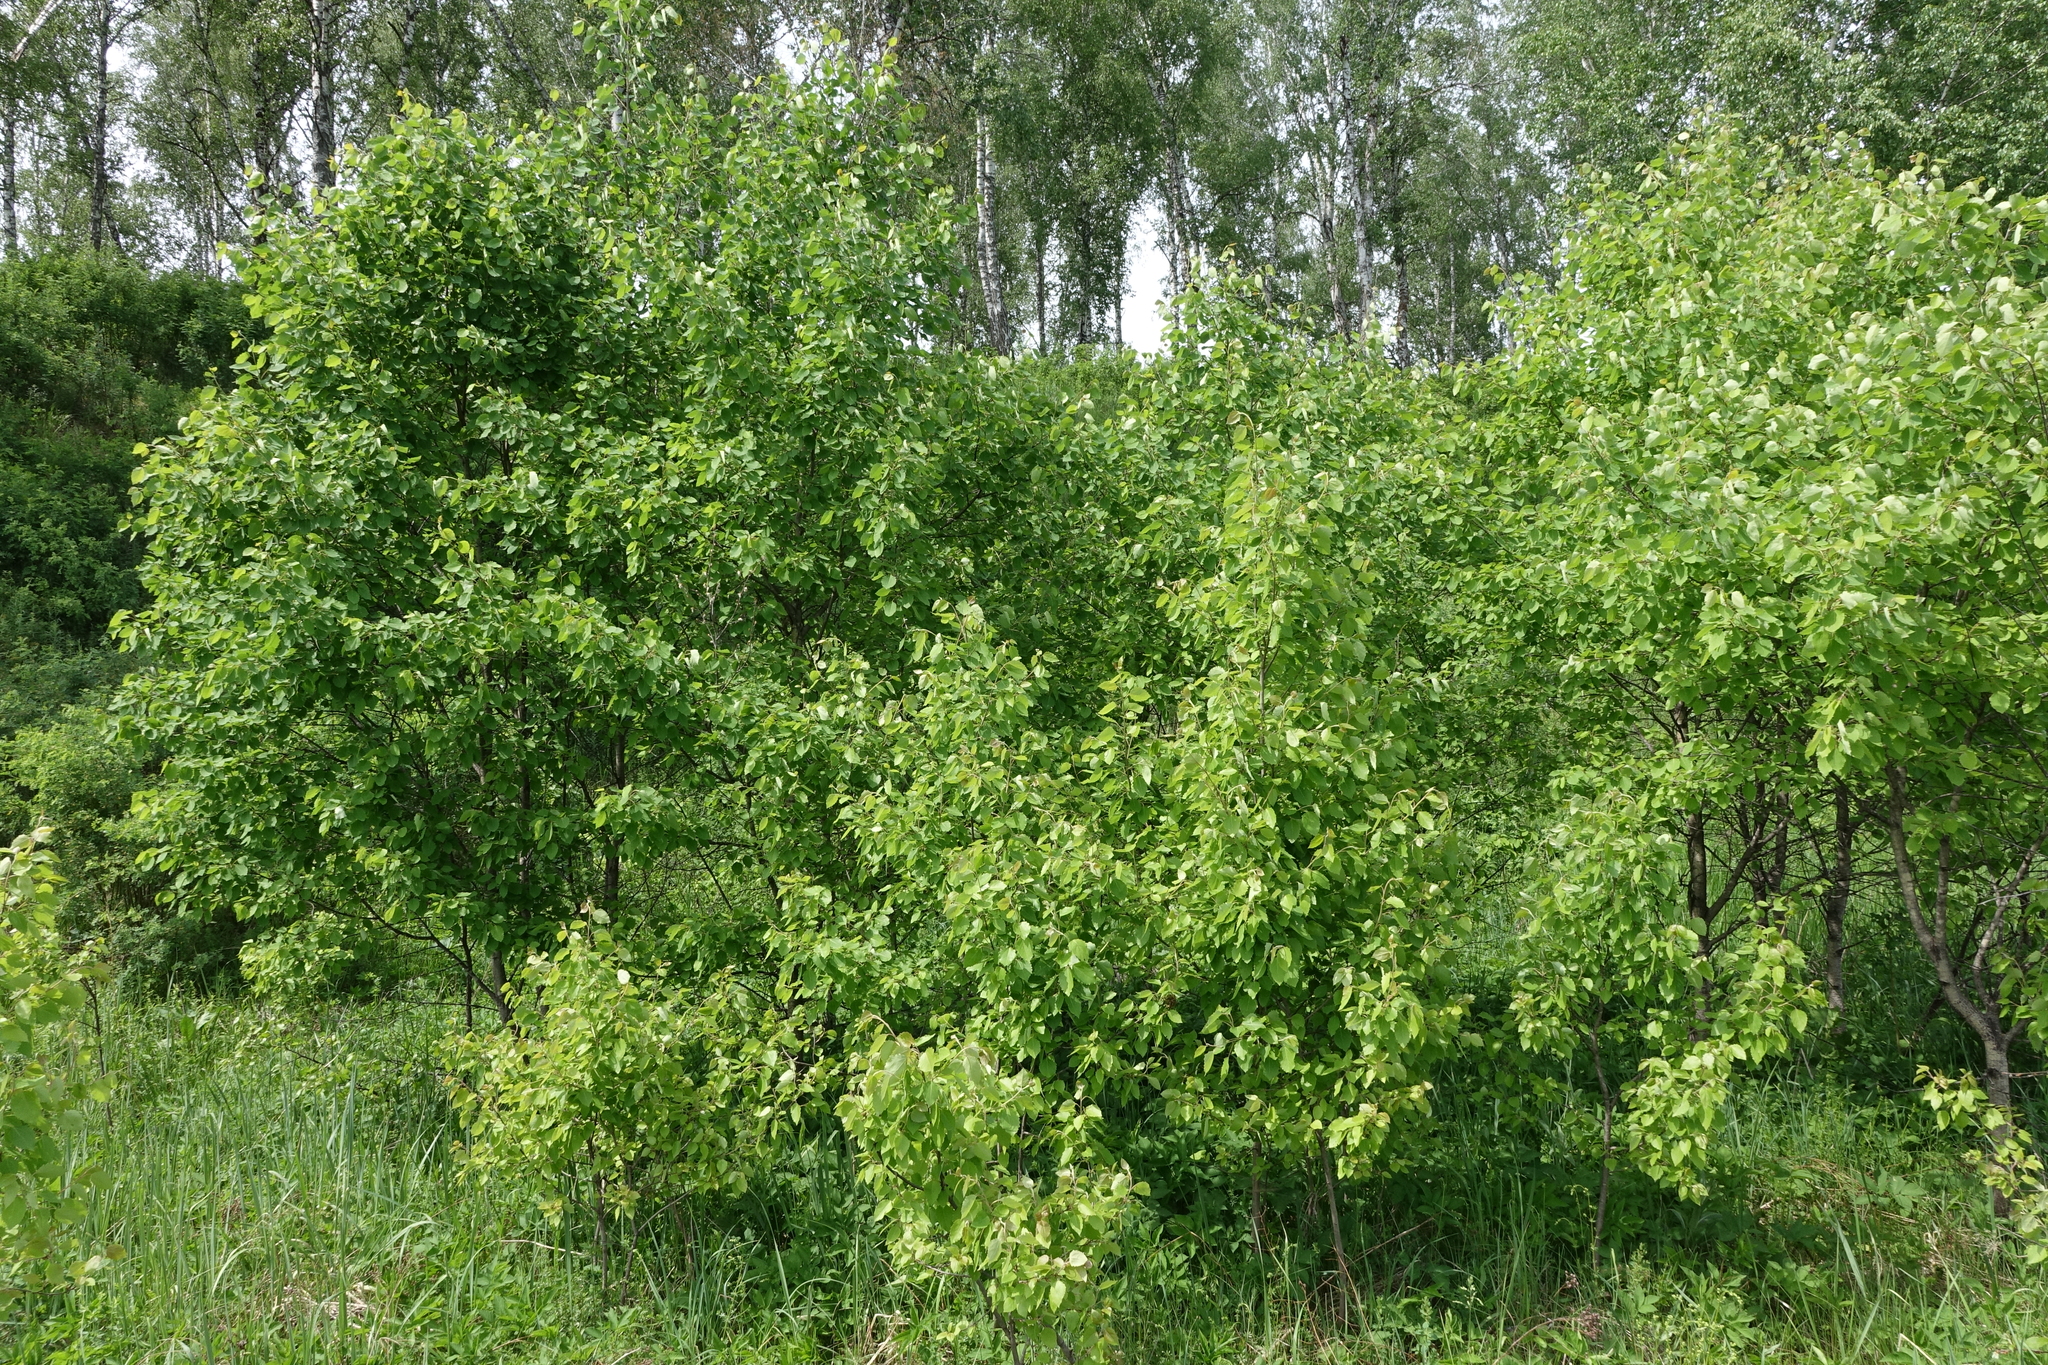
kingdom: Plantae
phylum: Tracheophyta
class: Magnoliopsida
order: Malpighiales
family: Salicaceae
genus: Populus
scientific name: Populus tremula
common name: European aspen
